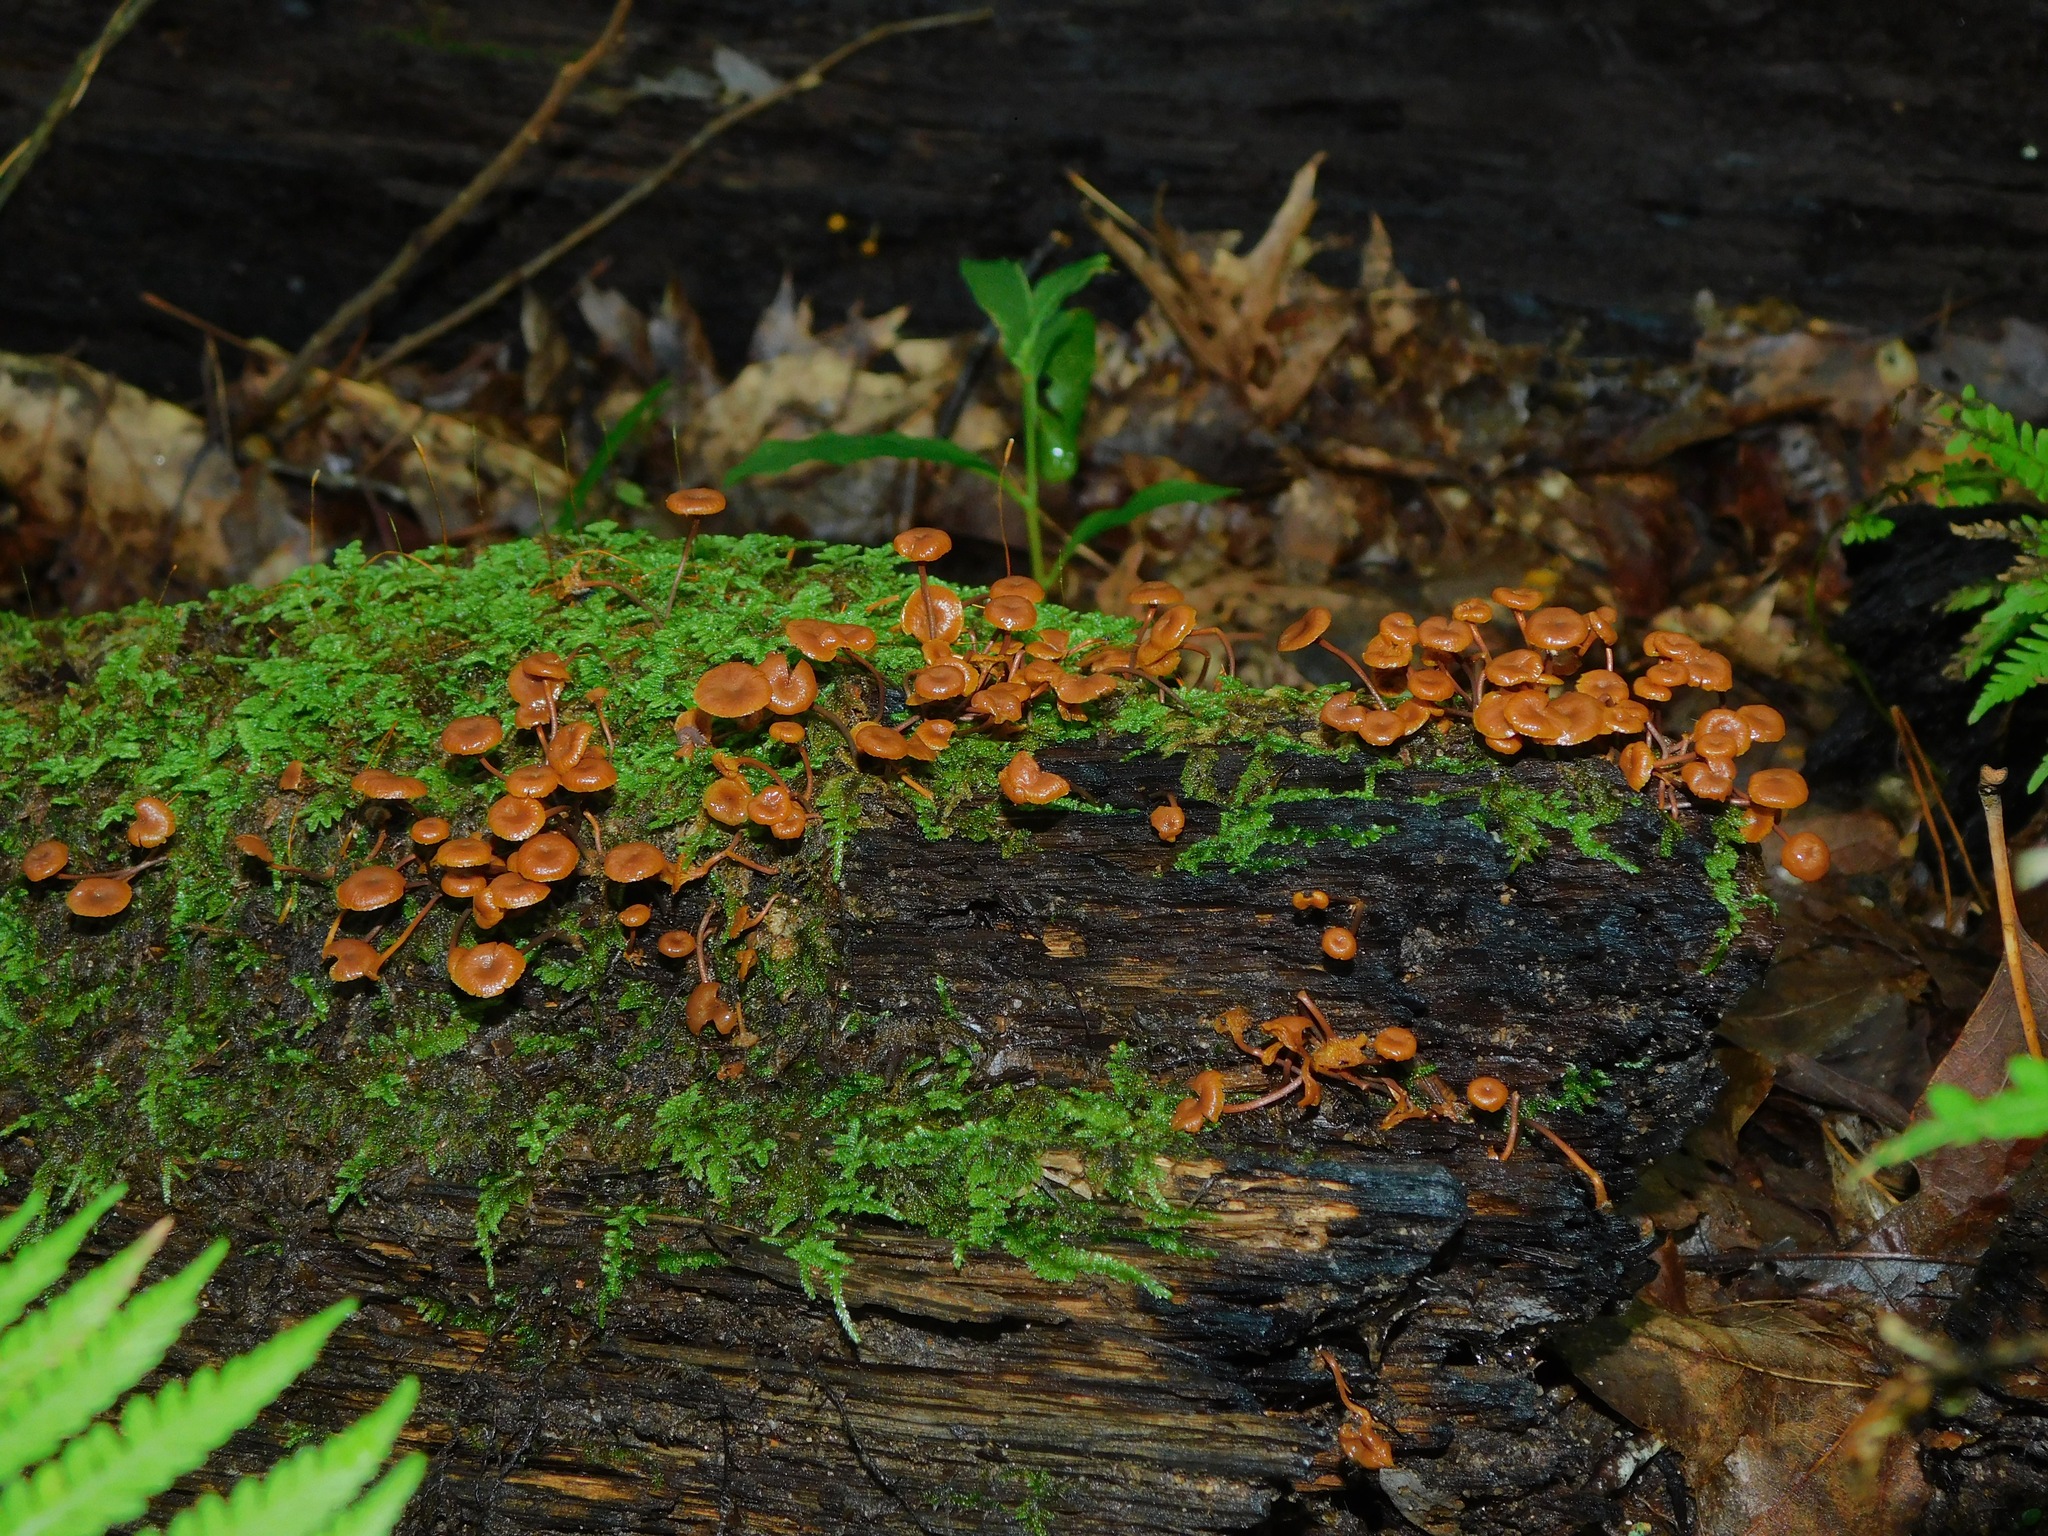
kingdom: Fungi
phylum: Basidiomycota
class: Agaricomycetes
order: Agaricales
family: Mycenaceae
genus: Xeromphalina
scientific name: Xeromphalina campanella
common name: Pinewood gingertail
